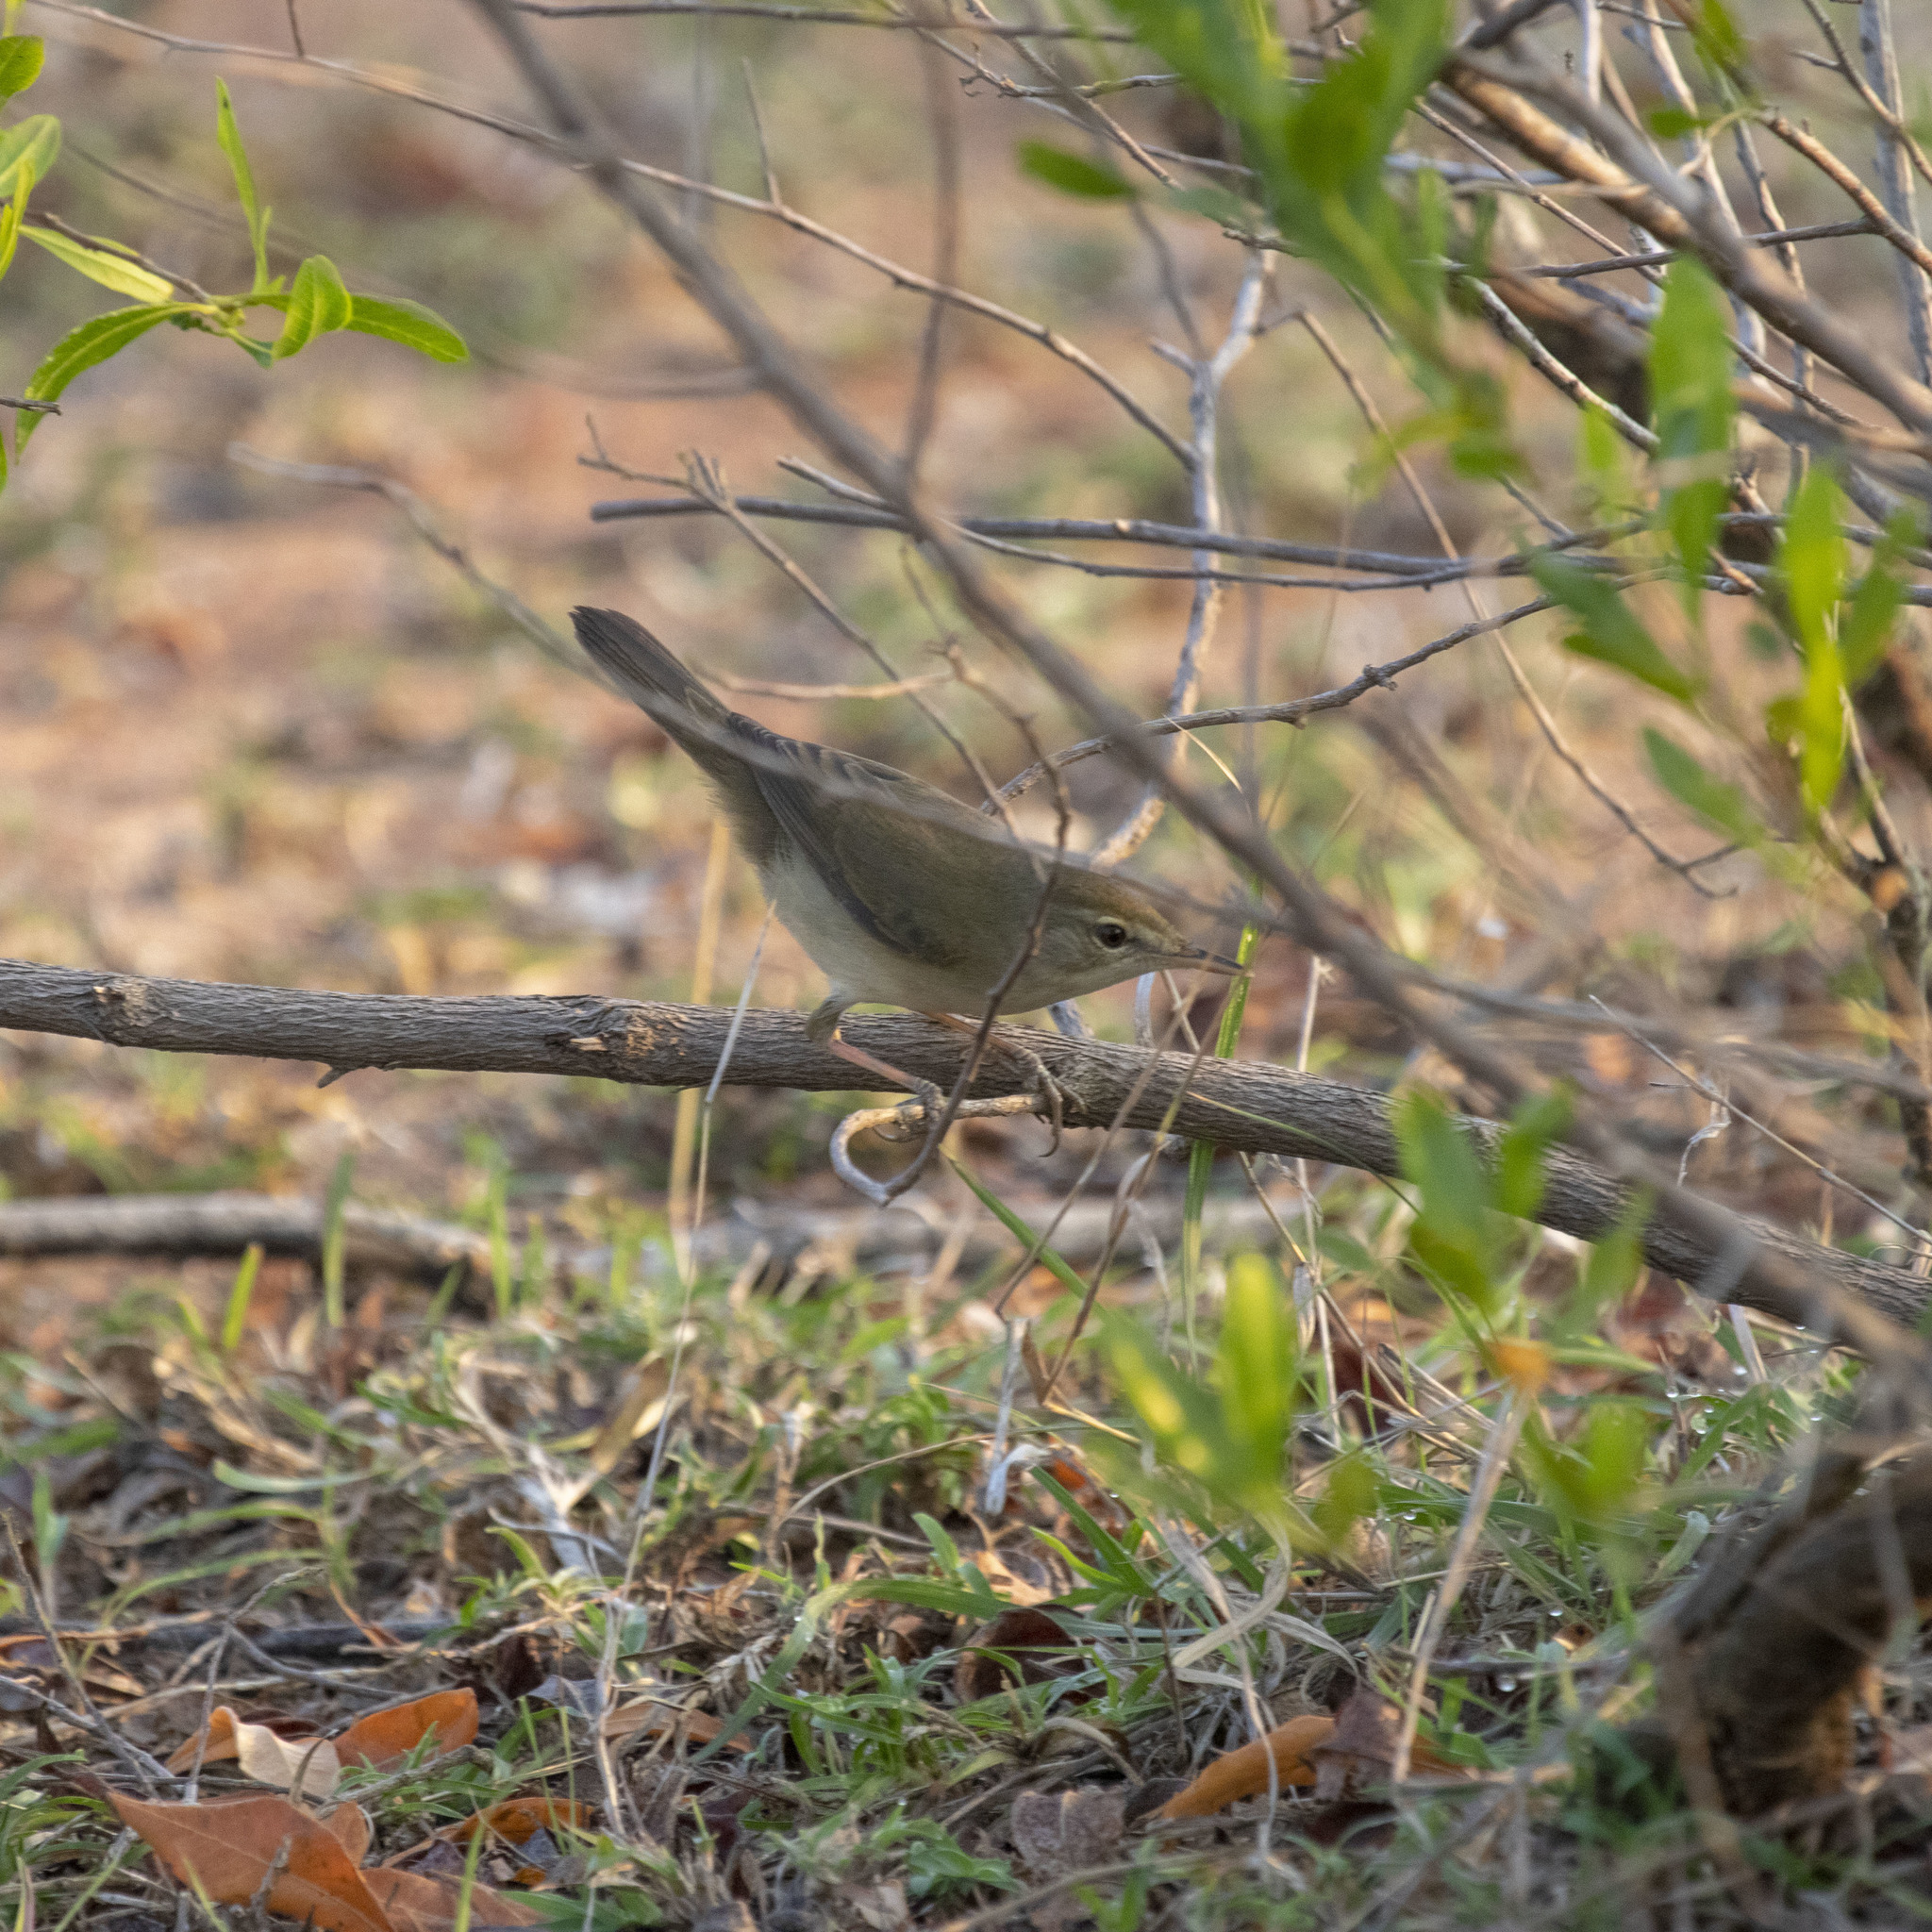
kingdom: Animalia
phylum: Chordata
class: Aves
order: Passeriformes
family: Acrocephalidae
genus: Acrocephalus
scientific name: Acrocephalus dumetorum
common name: Blyth's reed warbler
